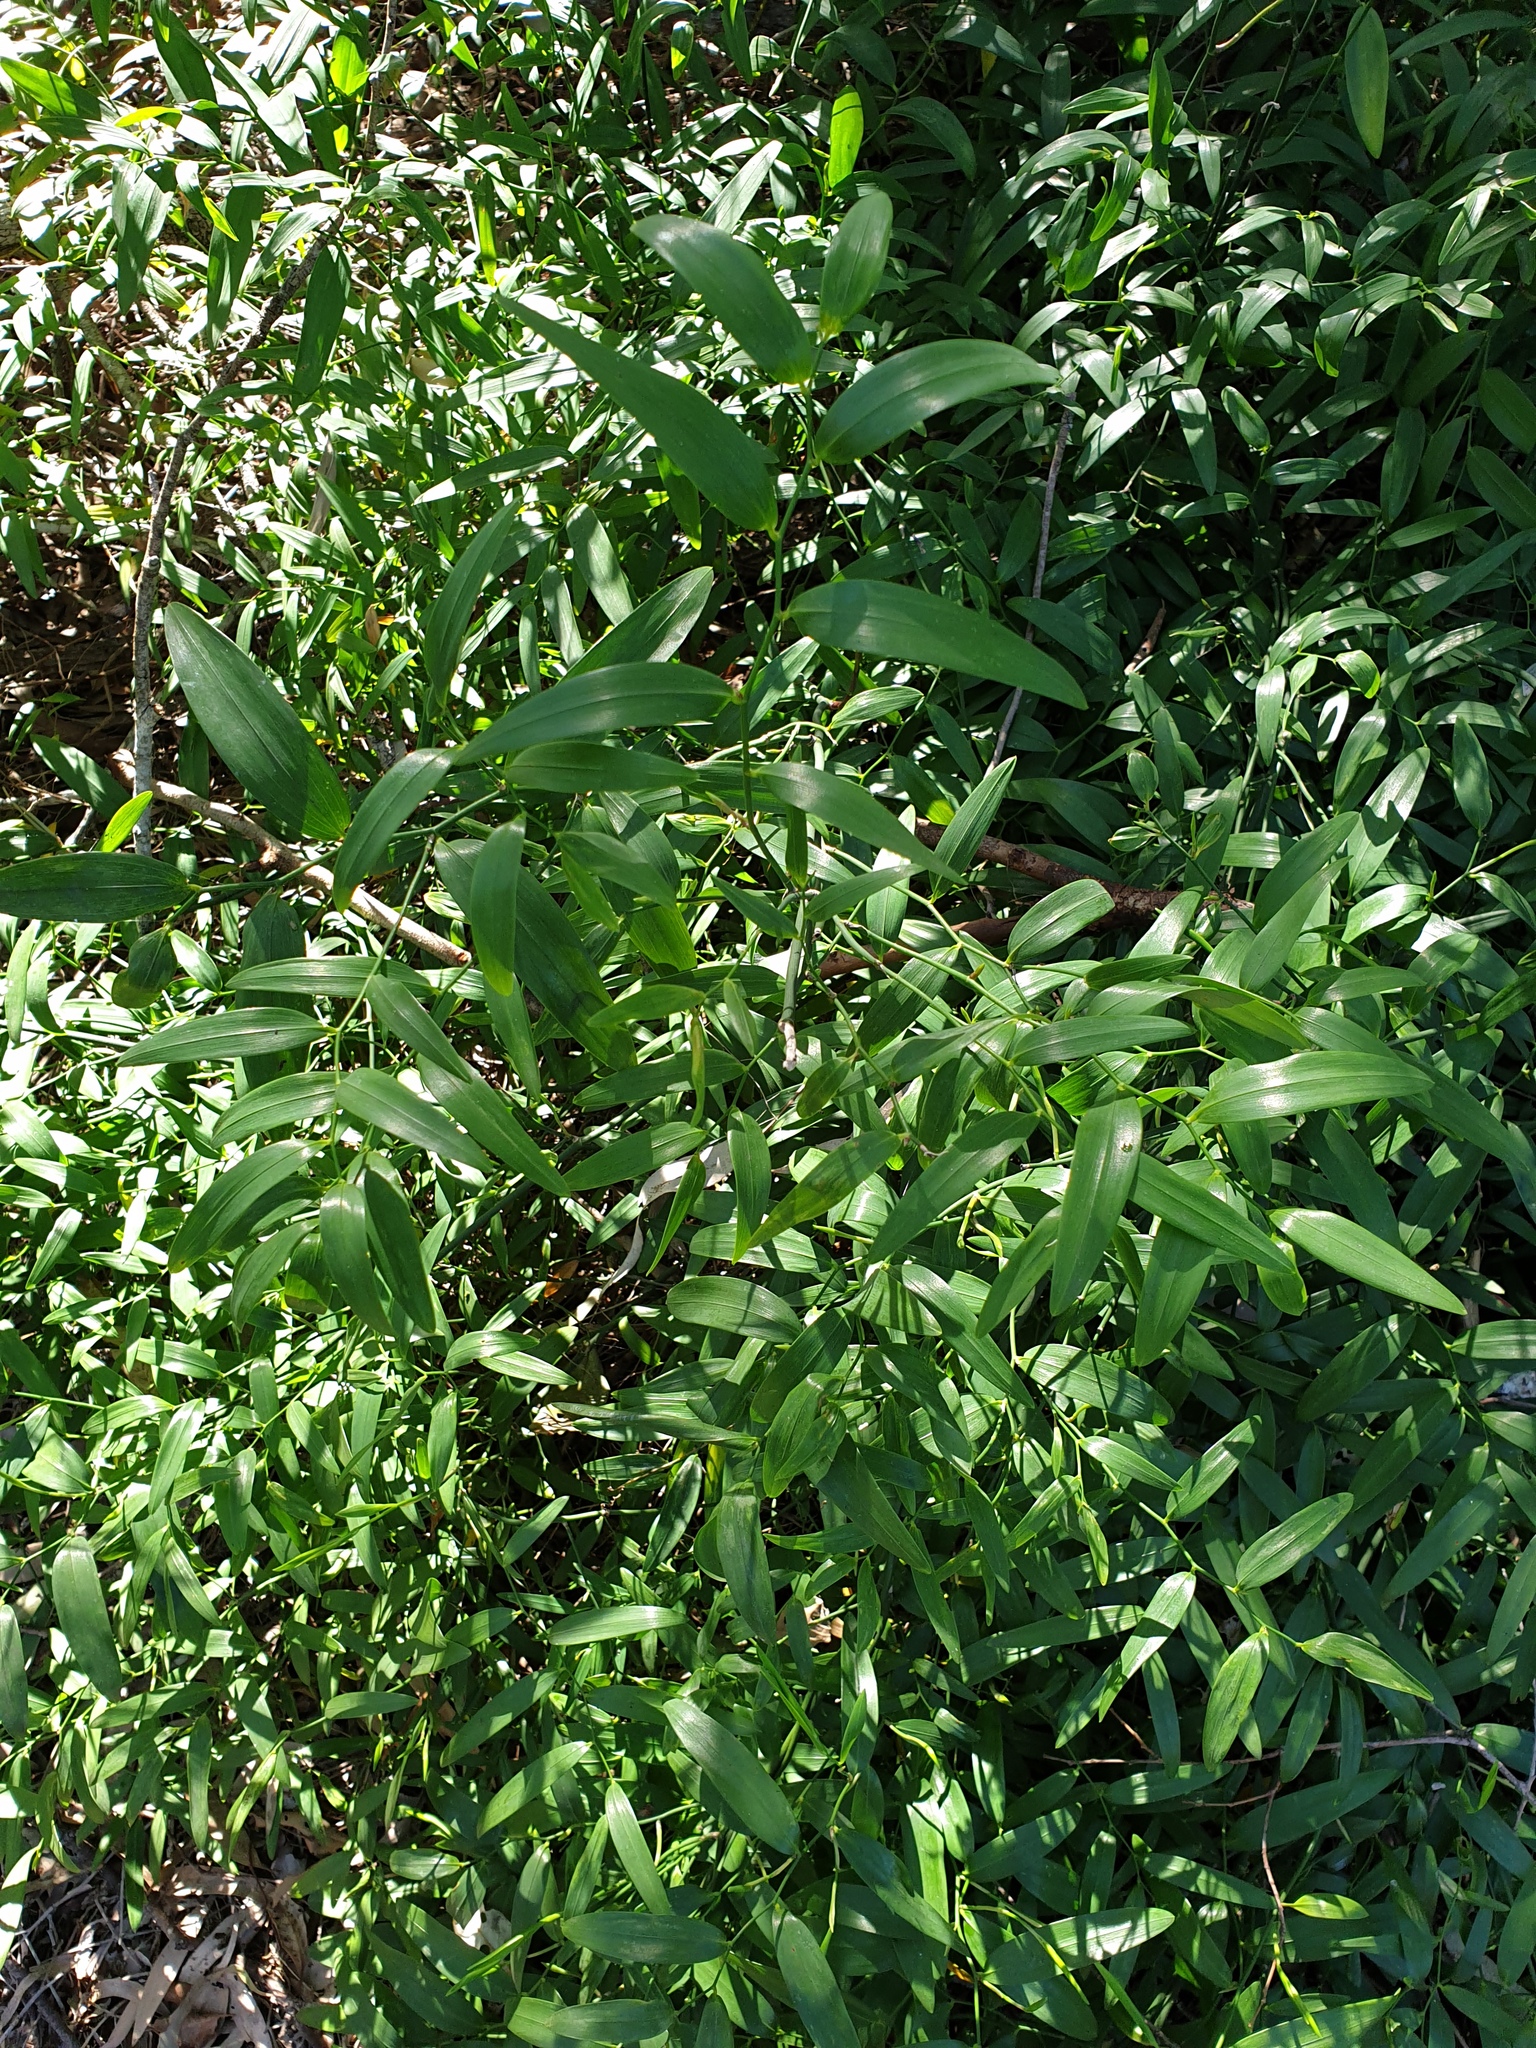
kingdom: Plantae
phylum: Tracheophyta
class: Liliopsida
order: Asparagales
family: Asphodelaceae
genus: Geitonoplesium
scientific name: Geitonoplesium cymosum
